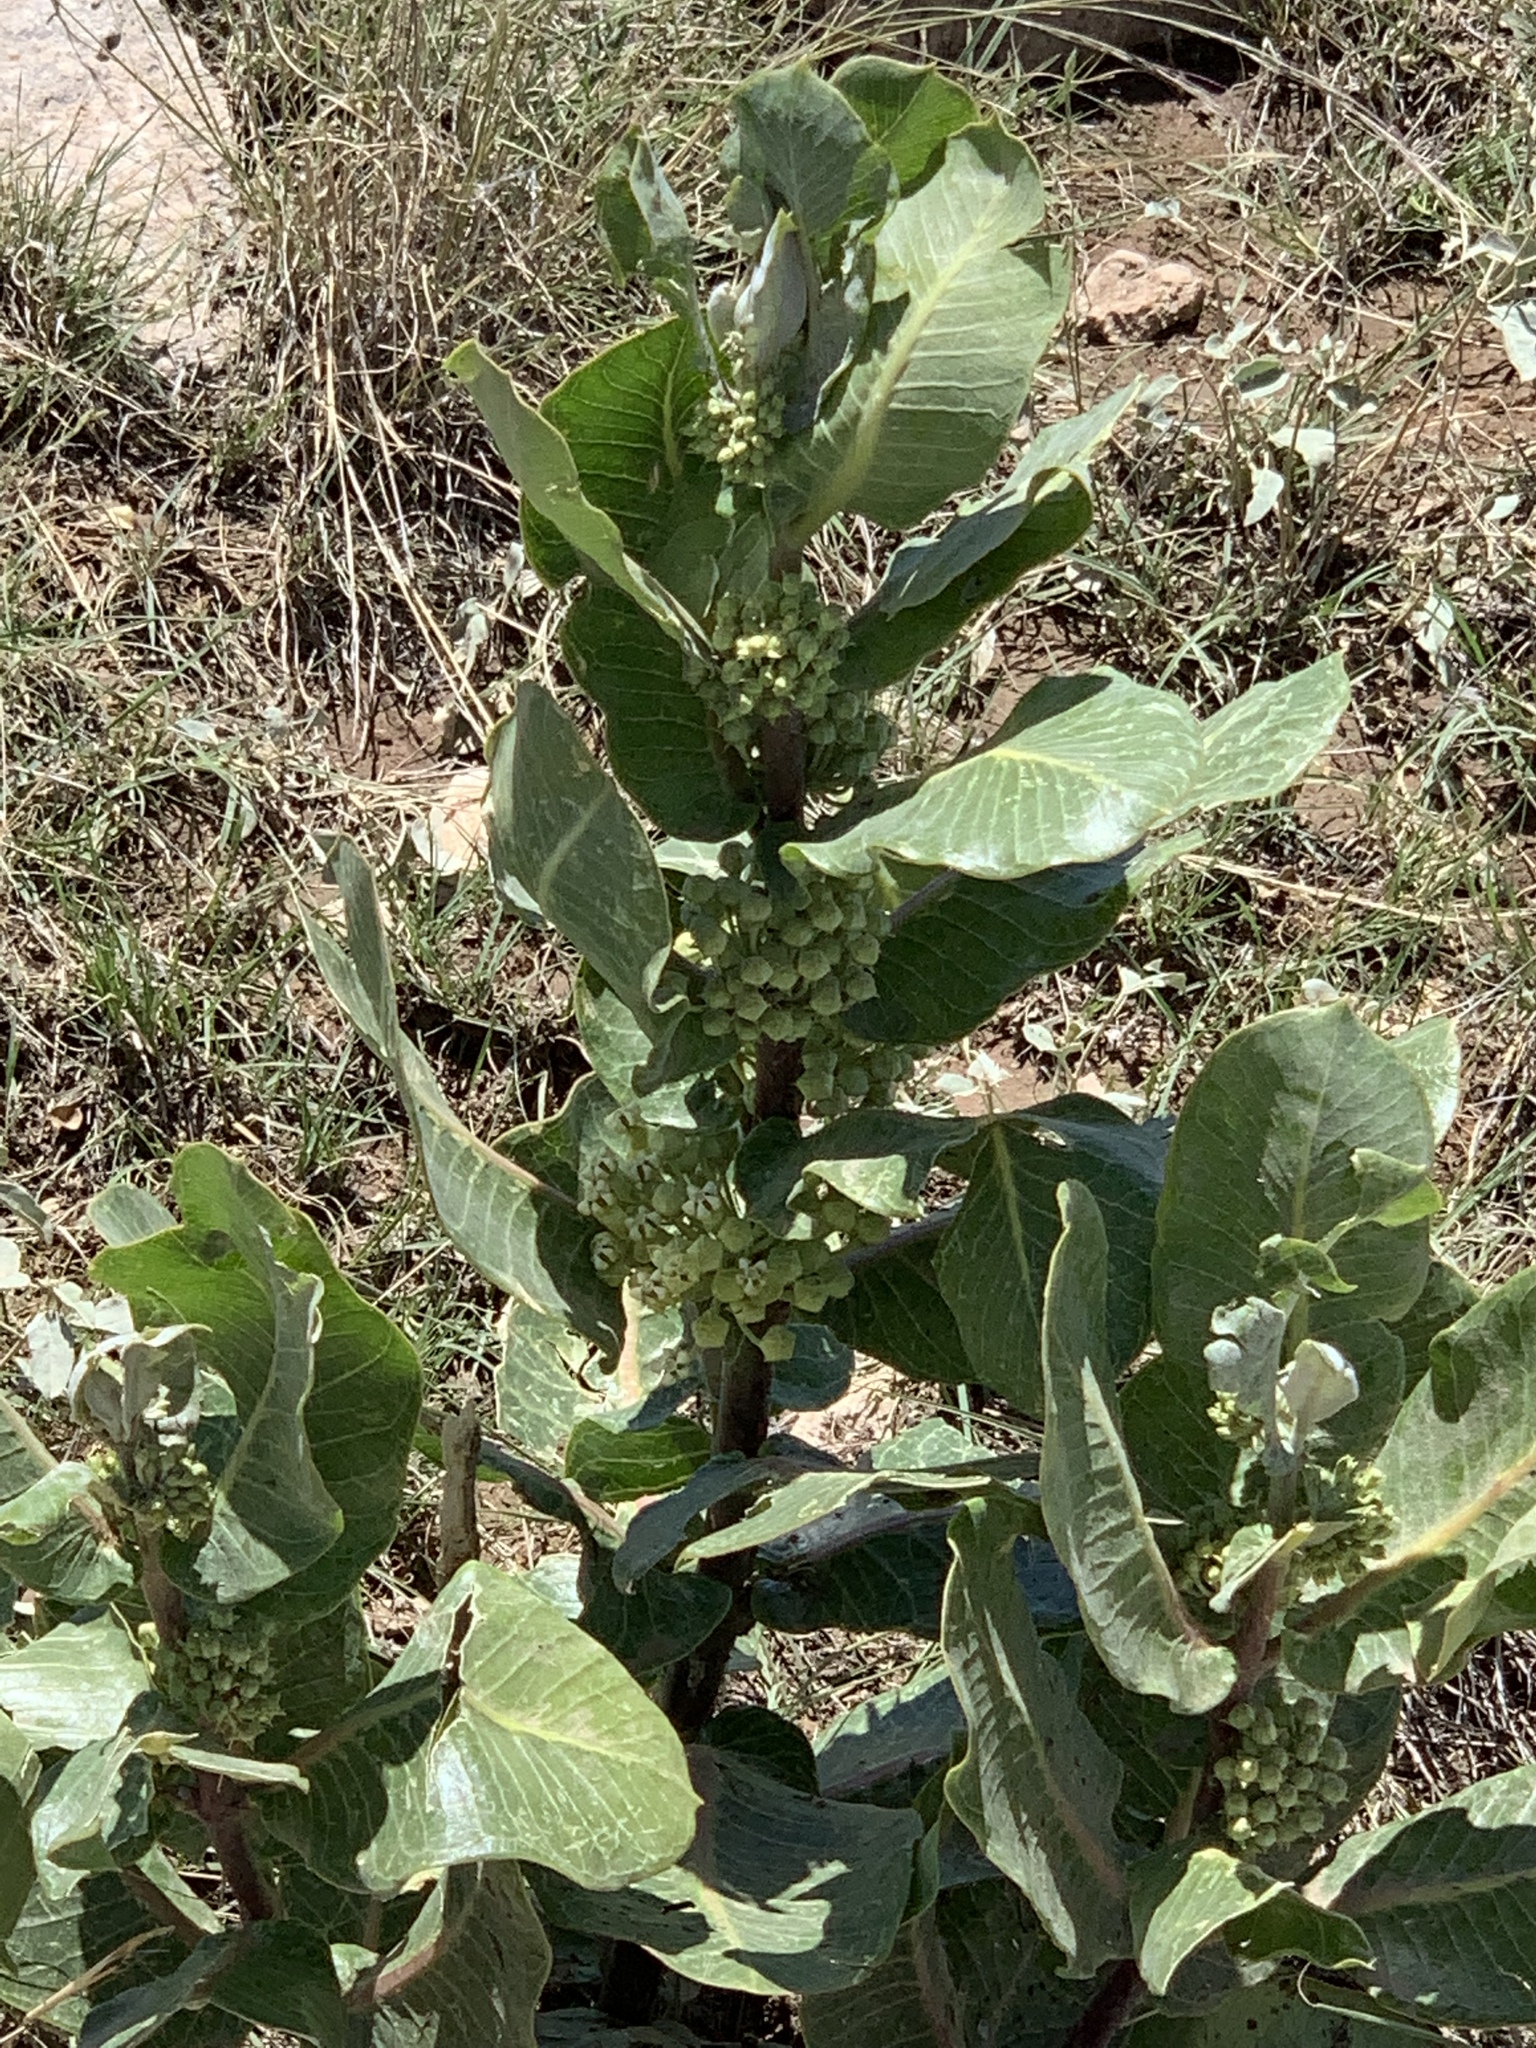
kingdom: Plantae
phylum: Tracheophyta
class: Magnoliopsida
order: Gentianales
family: Apocynaceae
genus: Asclepias
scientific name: Asclepias latifolia
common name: Broadleaf milkweed
